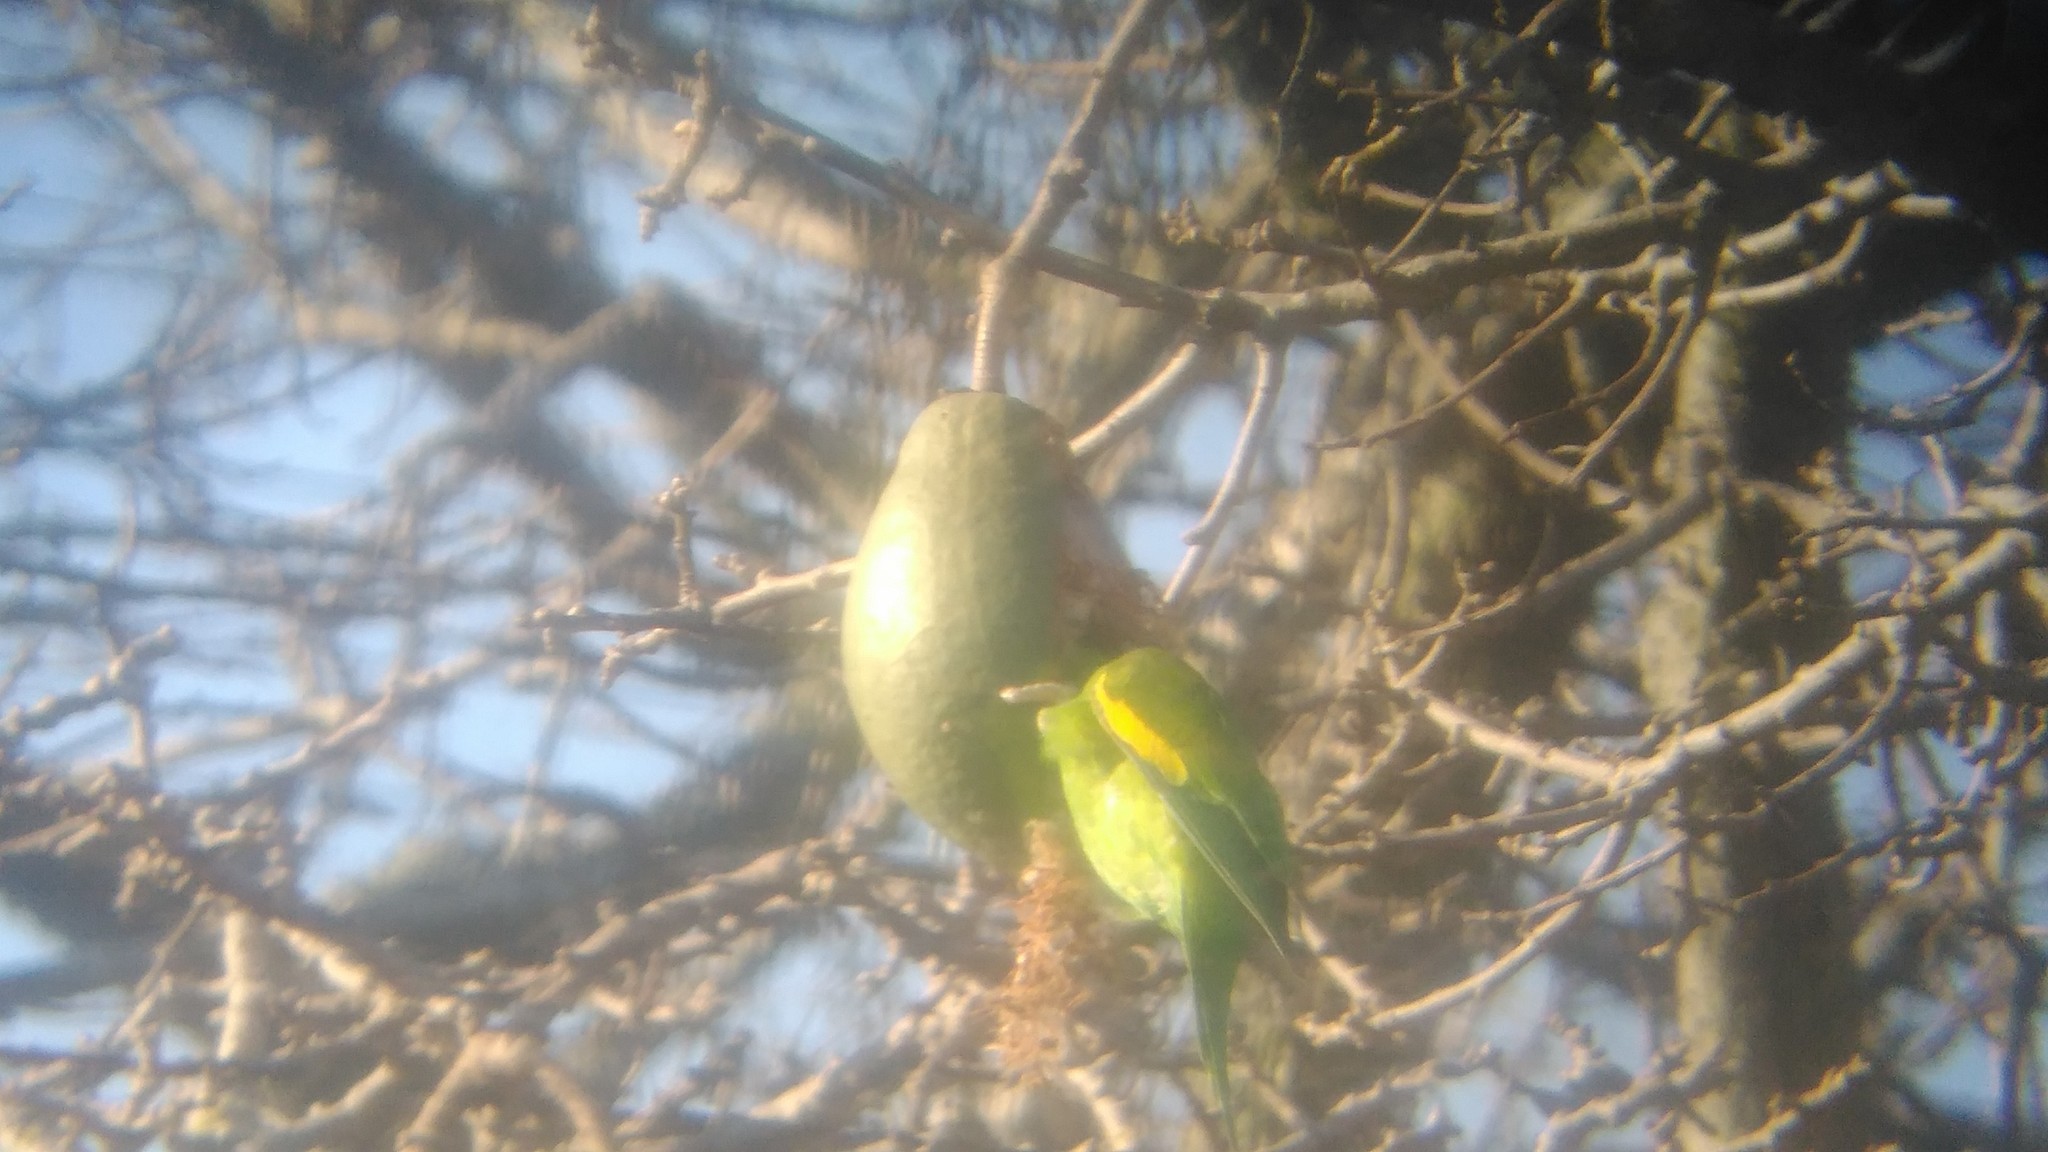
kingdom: Animalia
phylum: Chordata
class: Aves
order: Psittaciformes
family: Psittacidae
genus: Brotogeris
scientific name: Brotogeris chiriri
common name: Yellow-chevroned parakeet
